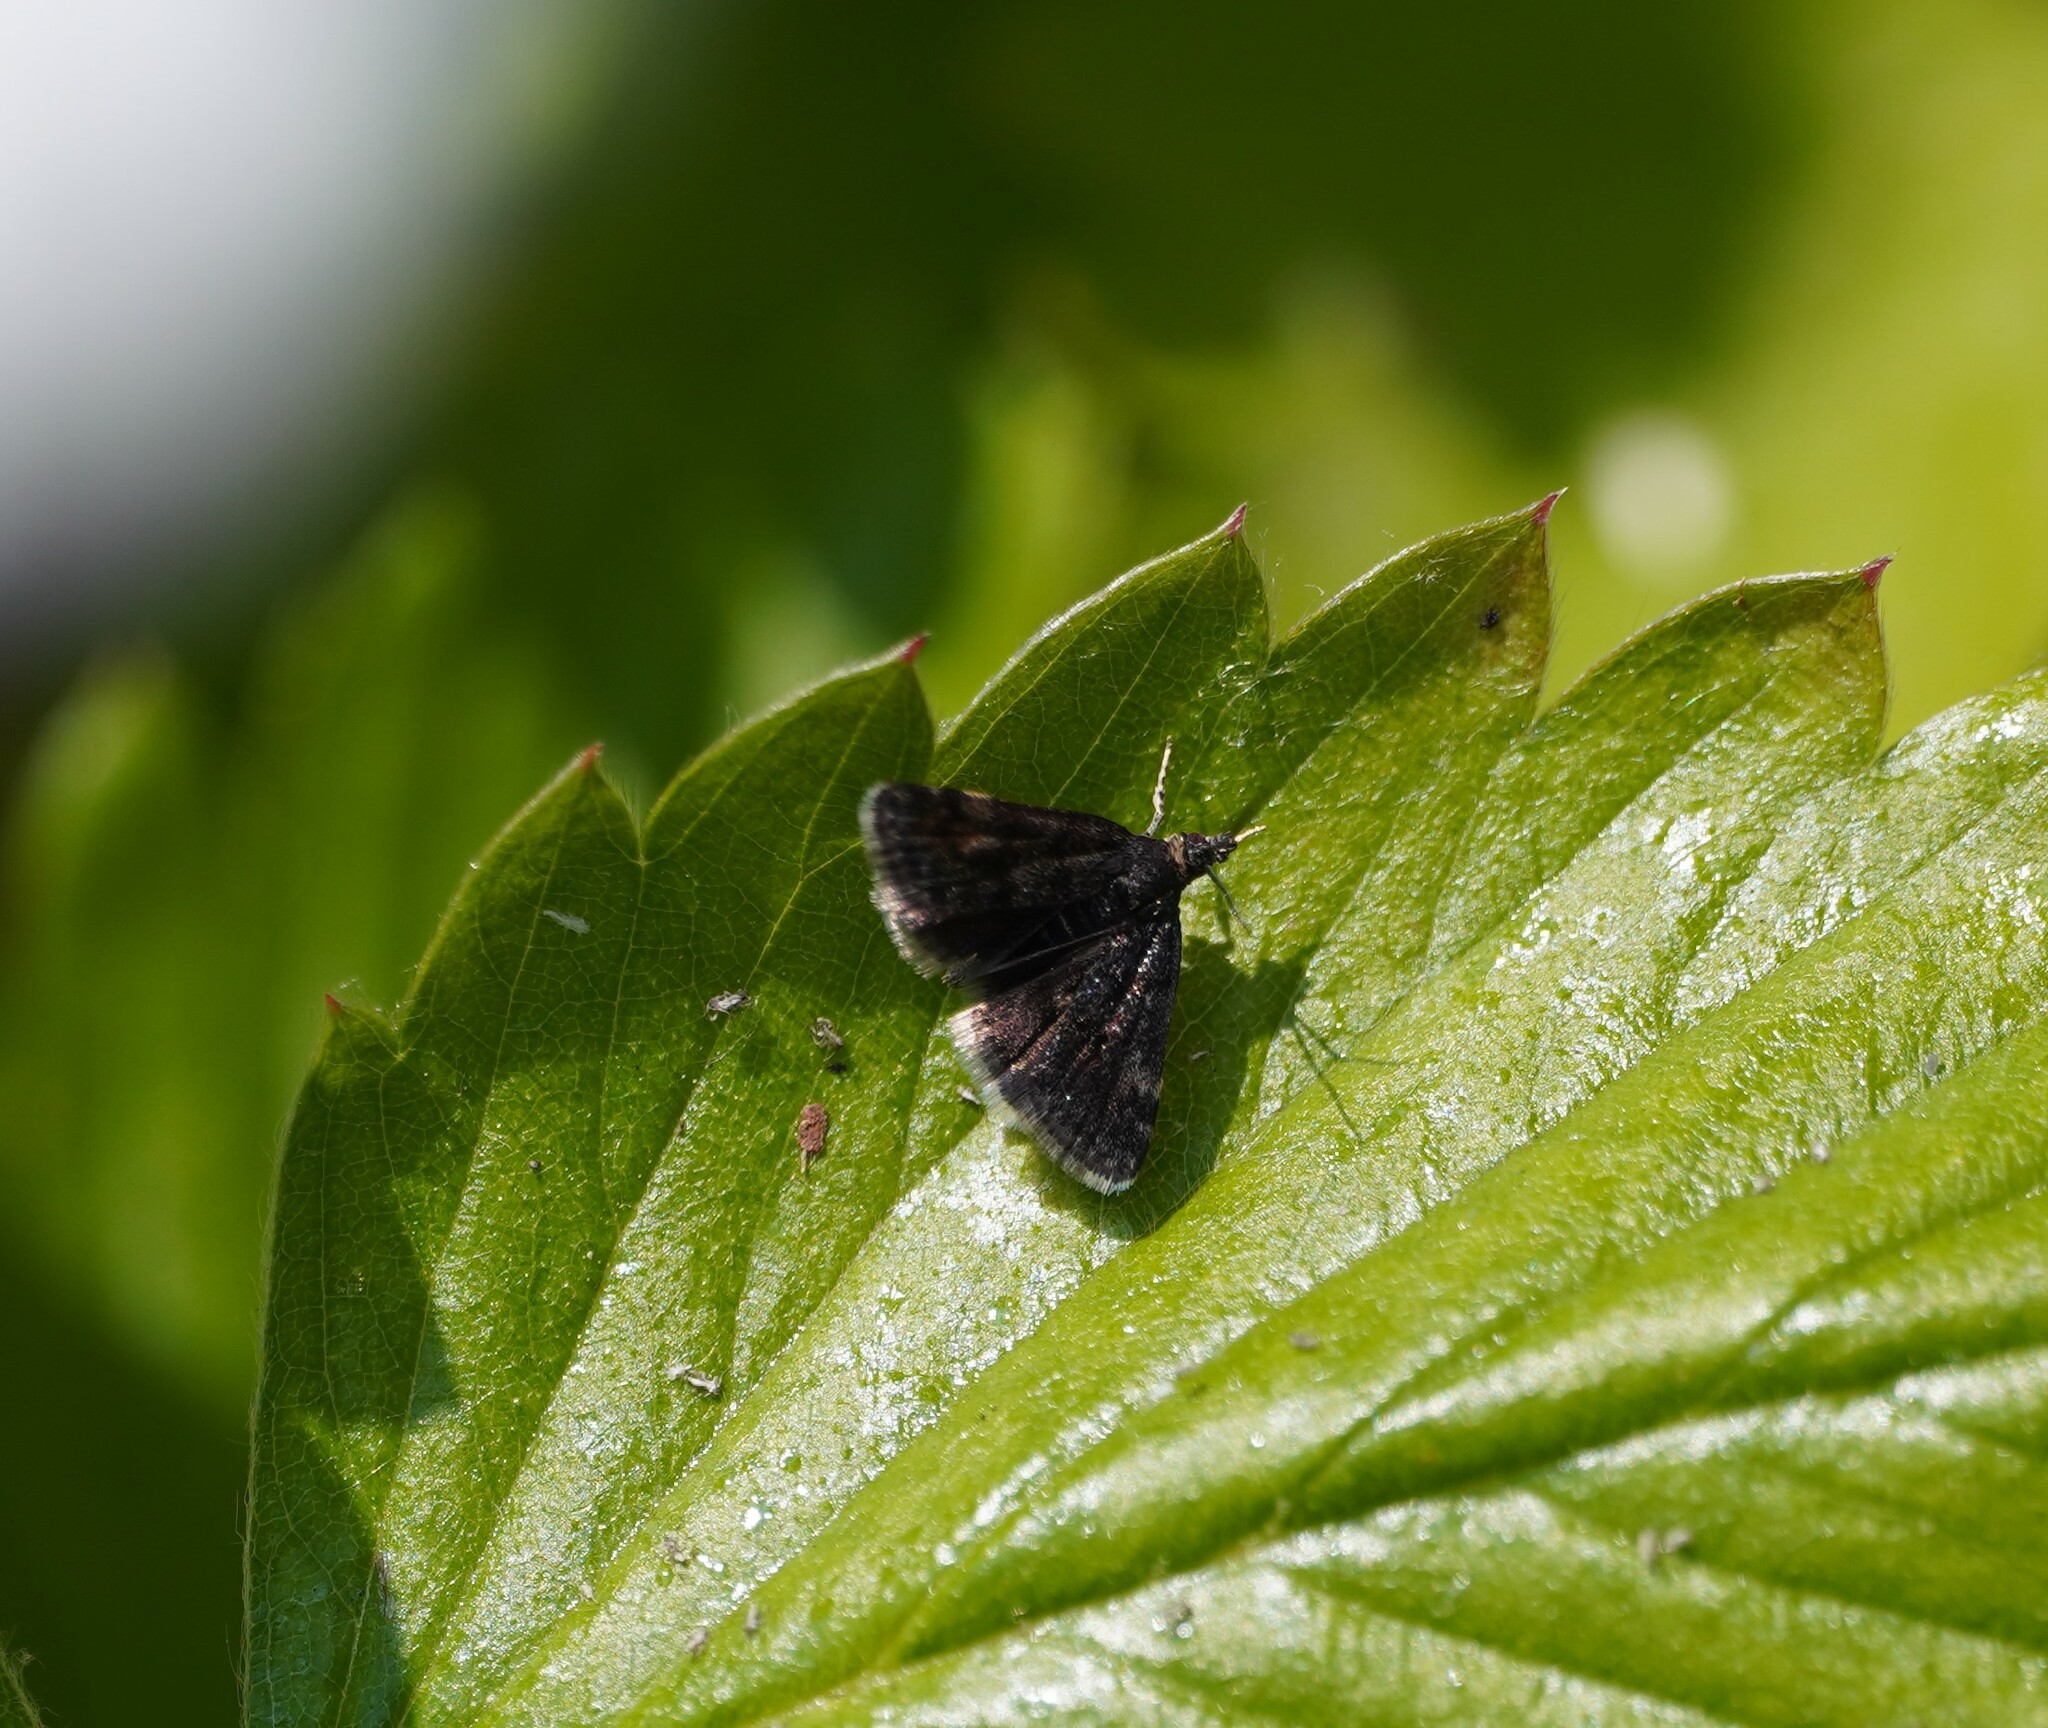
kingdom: Animalia
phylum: Arthropoda
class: Insecta
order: Lepidoptera
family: Crambidae
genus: Heliothela
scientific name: Heliothela wulfeniana
